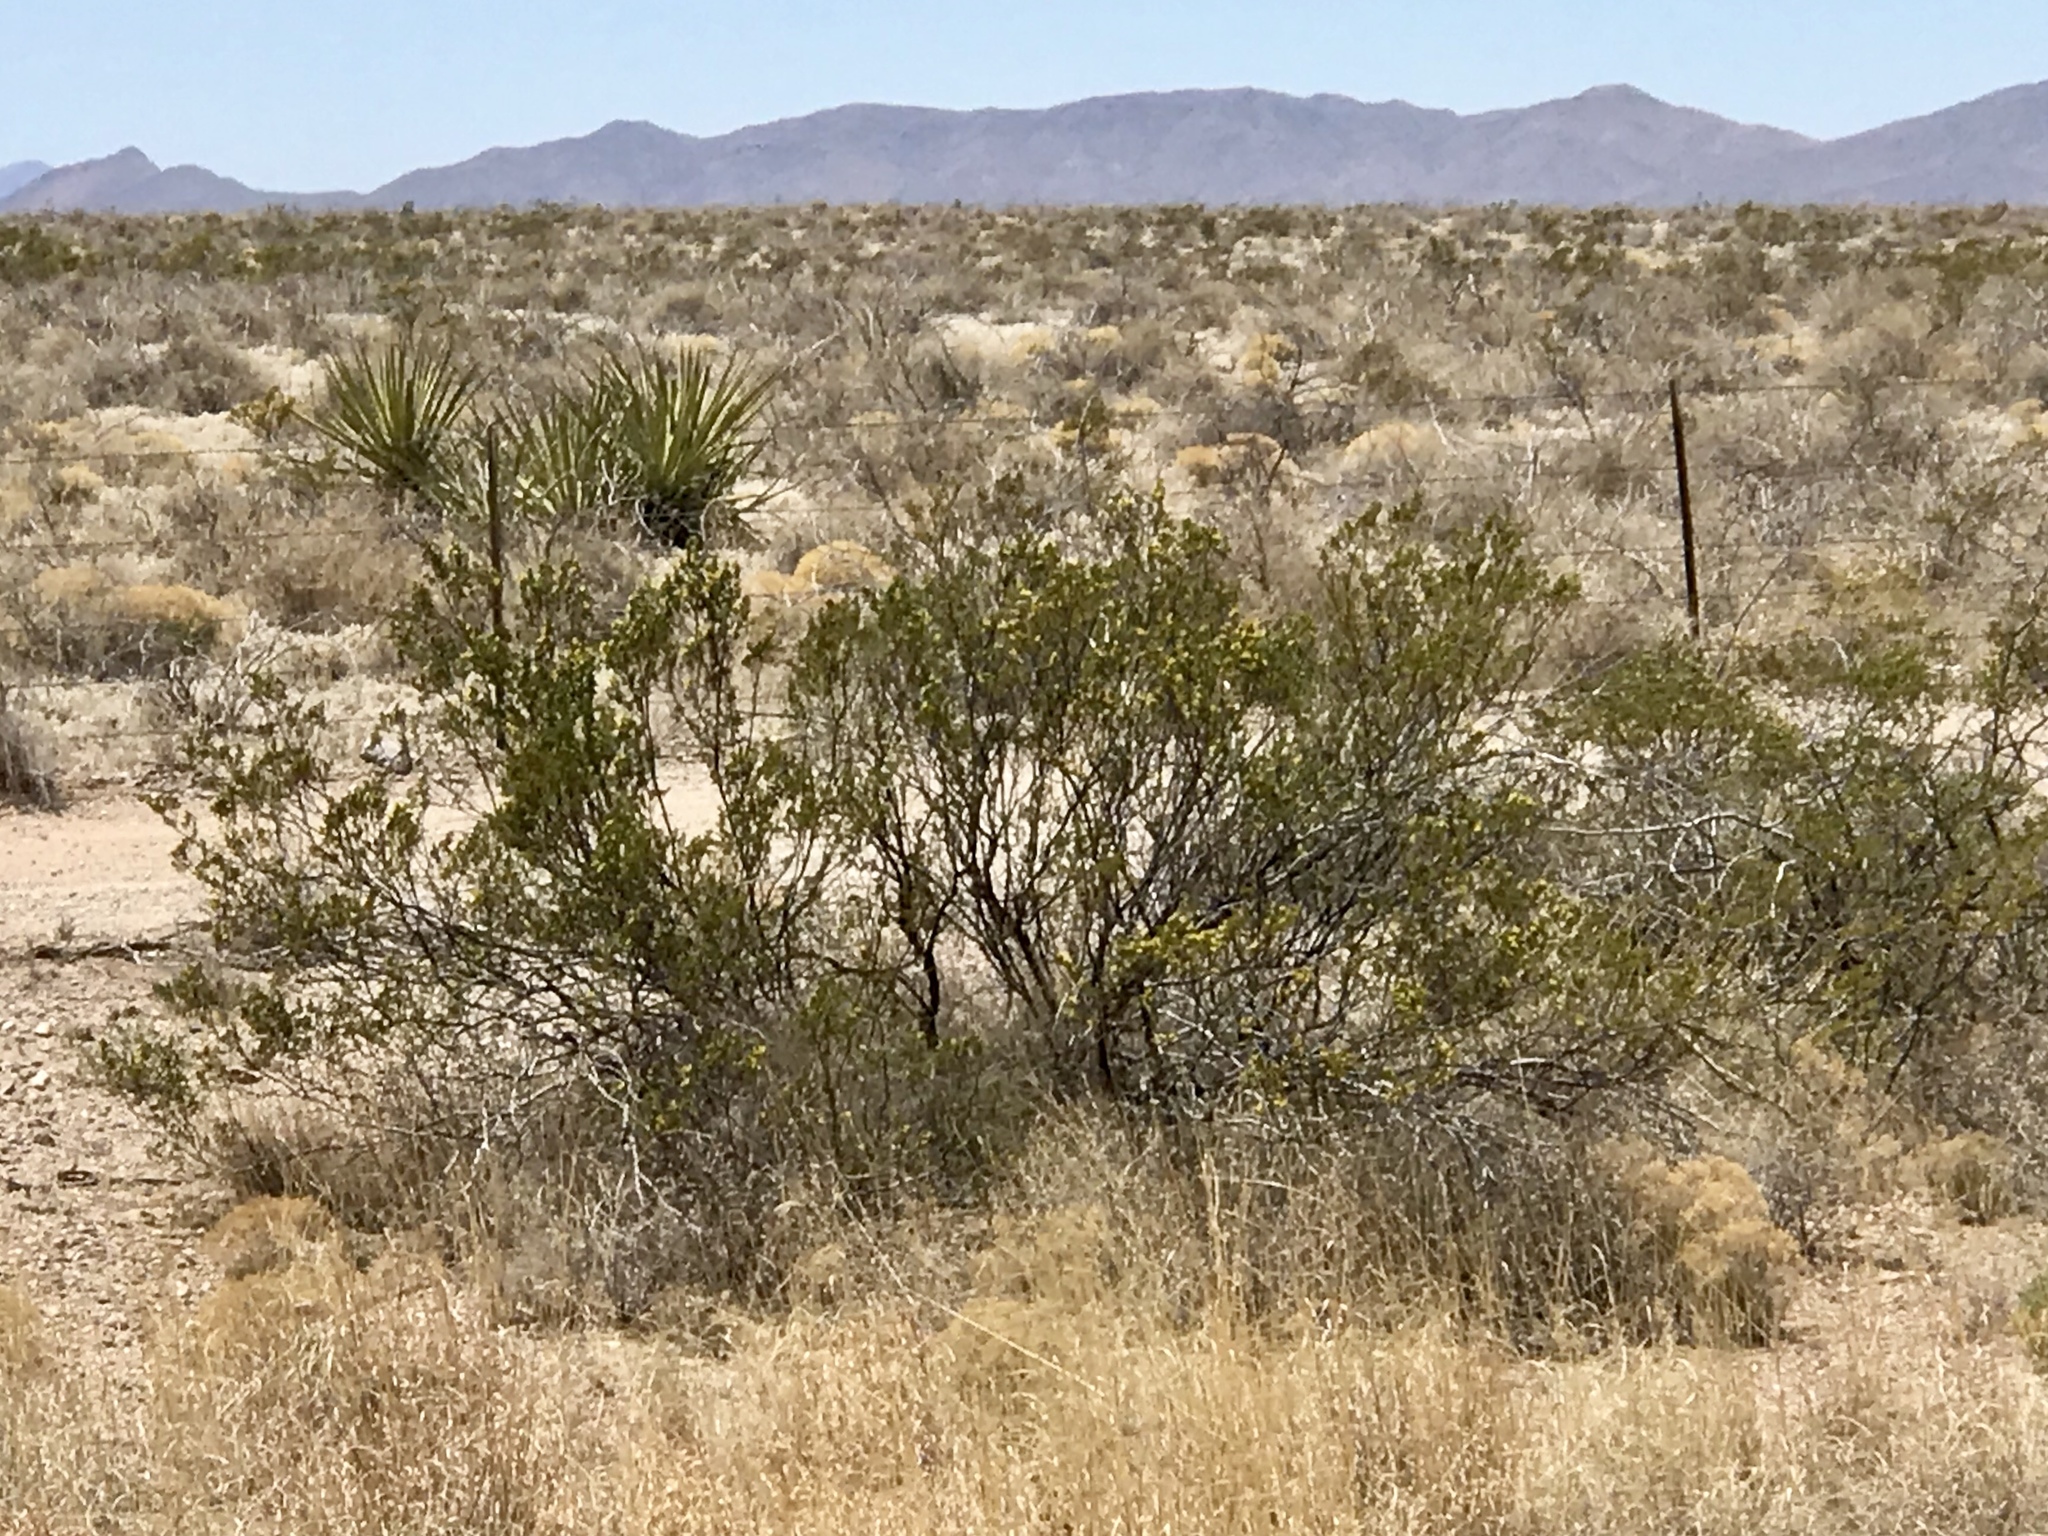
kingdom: Plantae
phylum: Tracheophyta
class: Magnoliopsida
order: Zygophyllales
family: Zygophyllaceae
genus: Larrea
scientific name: Larrea tridentata
